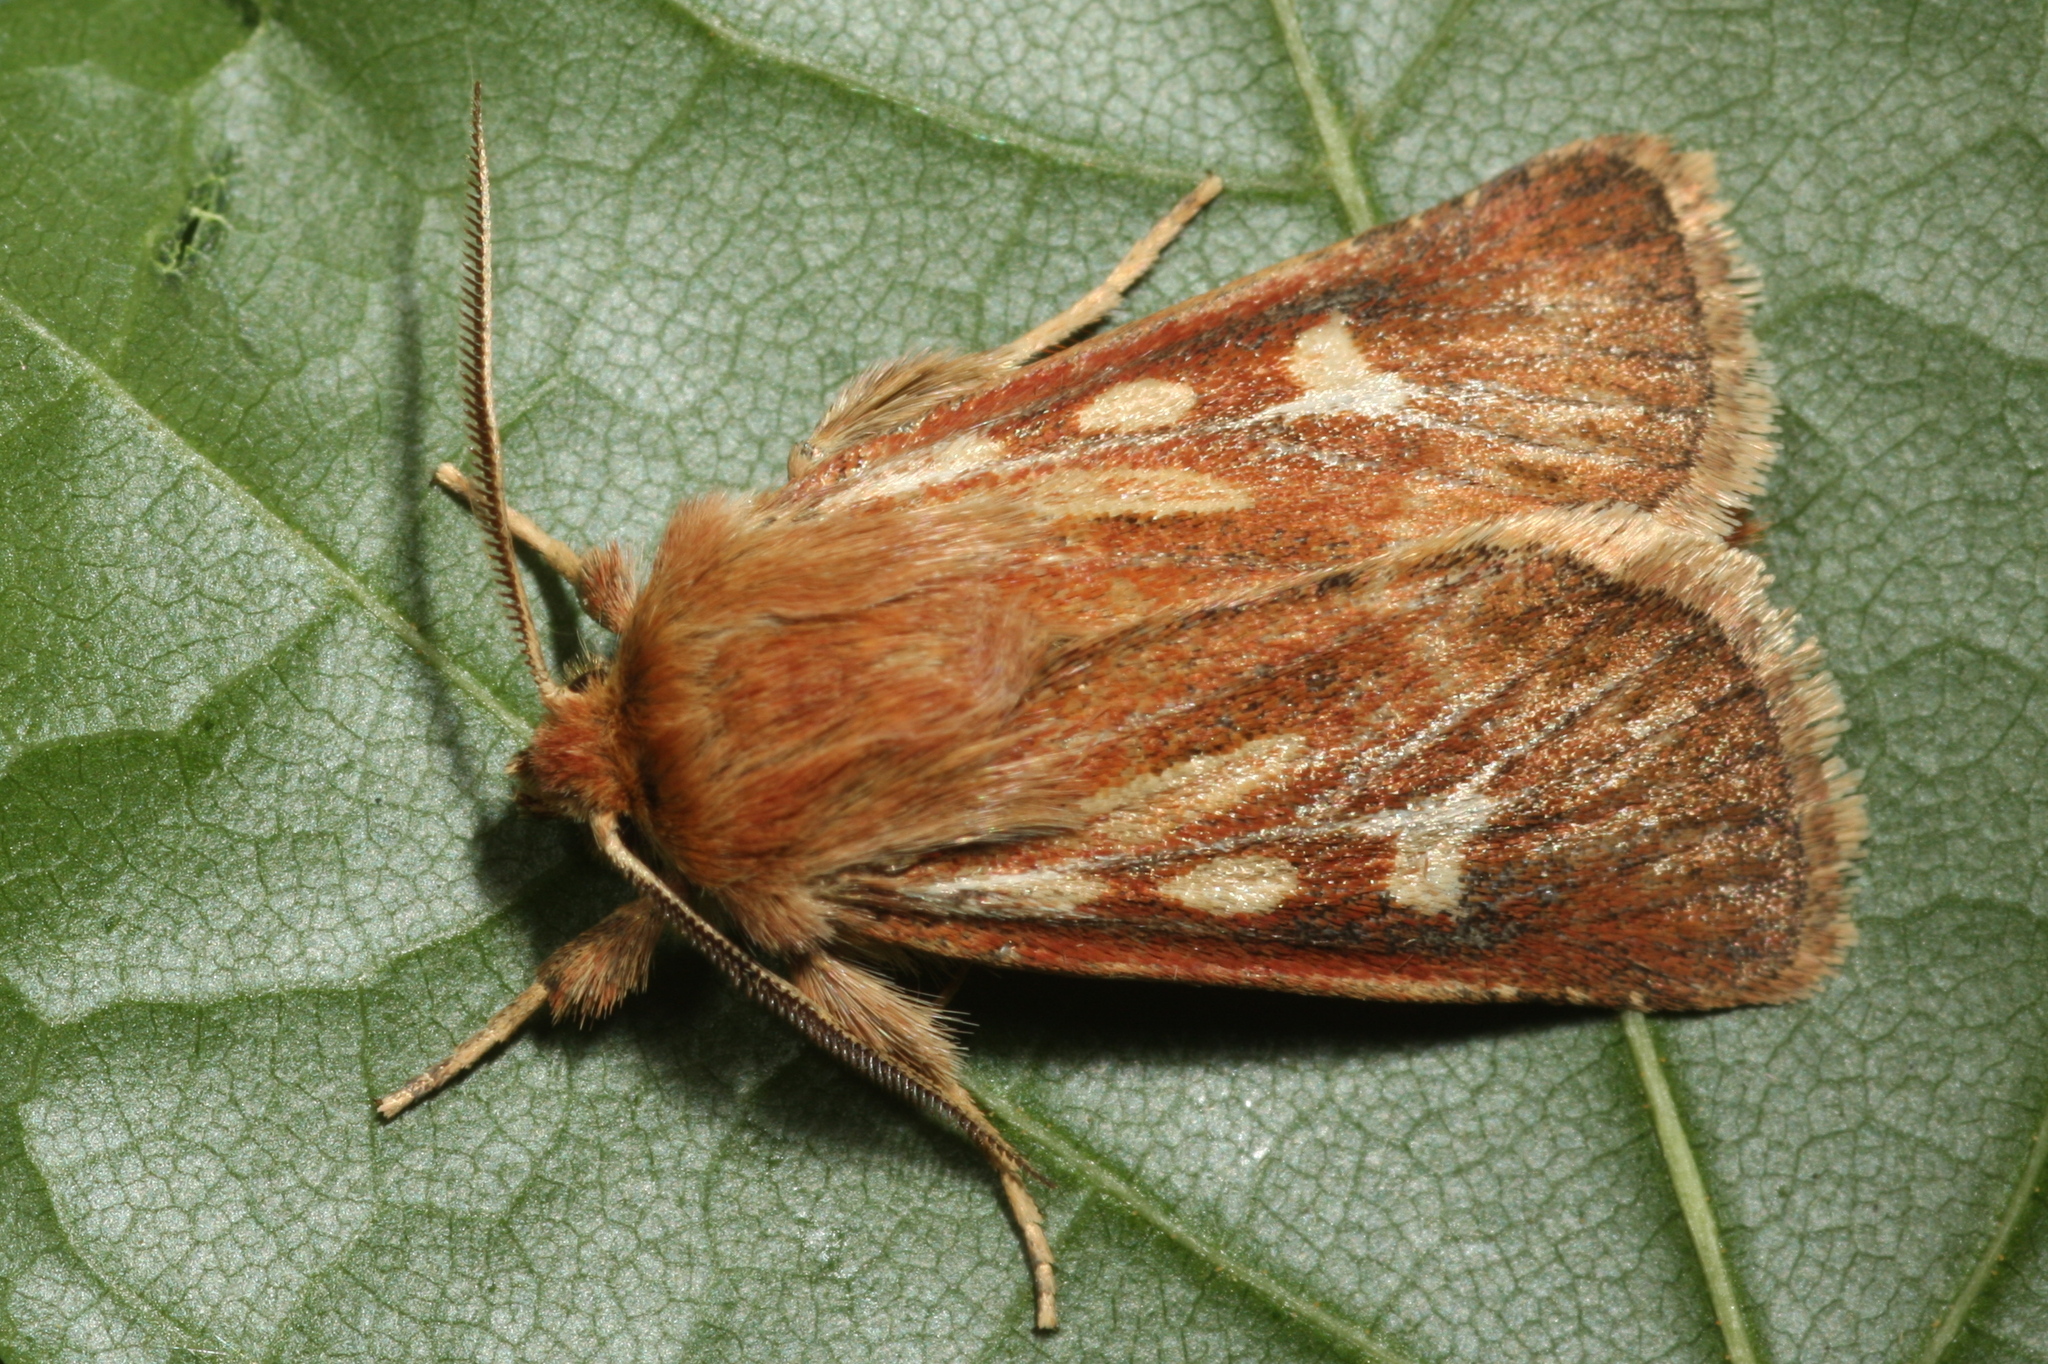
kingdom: Animalia
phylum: Arthropoda
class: Insecta
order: Lepidoptera
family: Noctuidae
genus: Cerapteryx
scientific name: Cerapteryx graminis
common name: Antler moth
